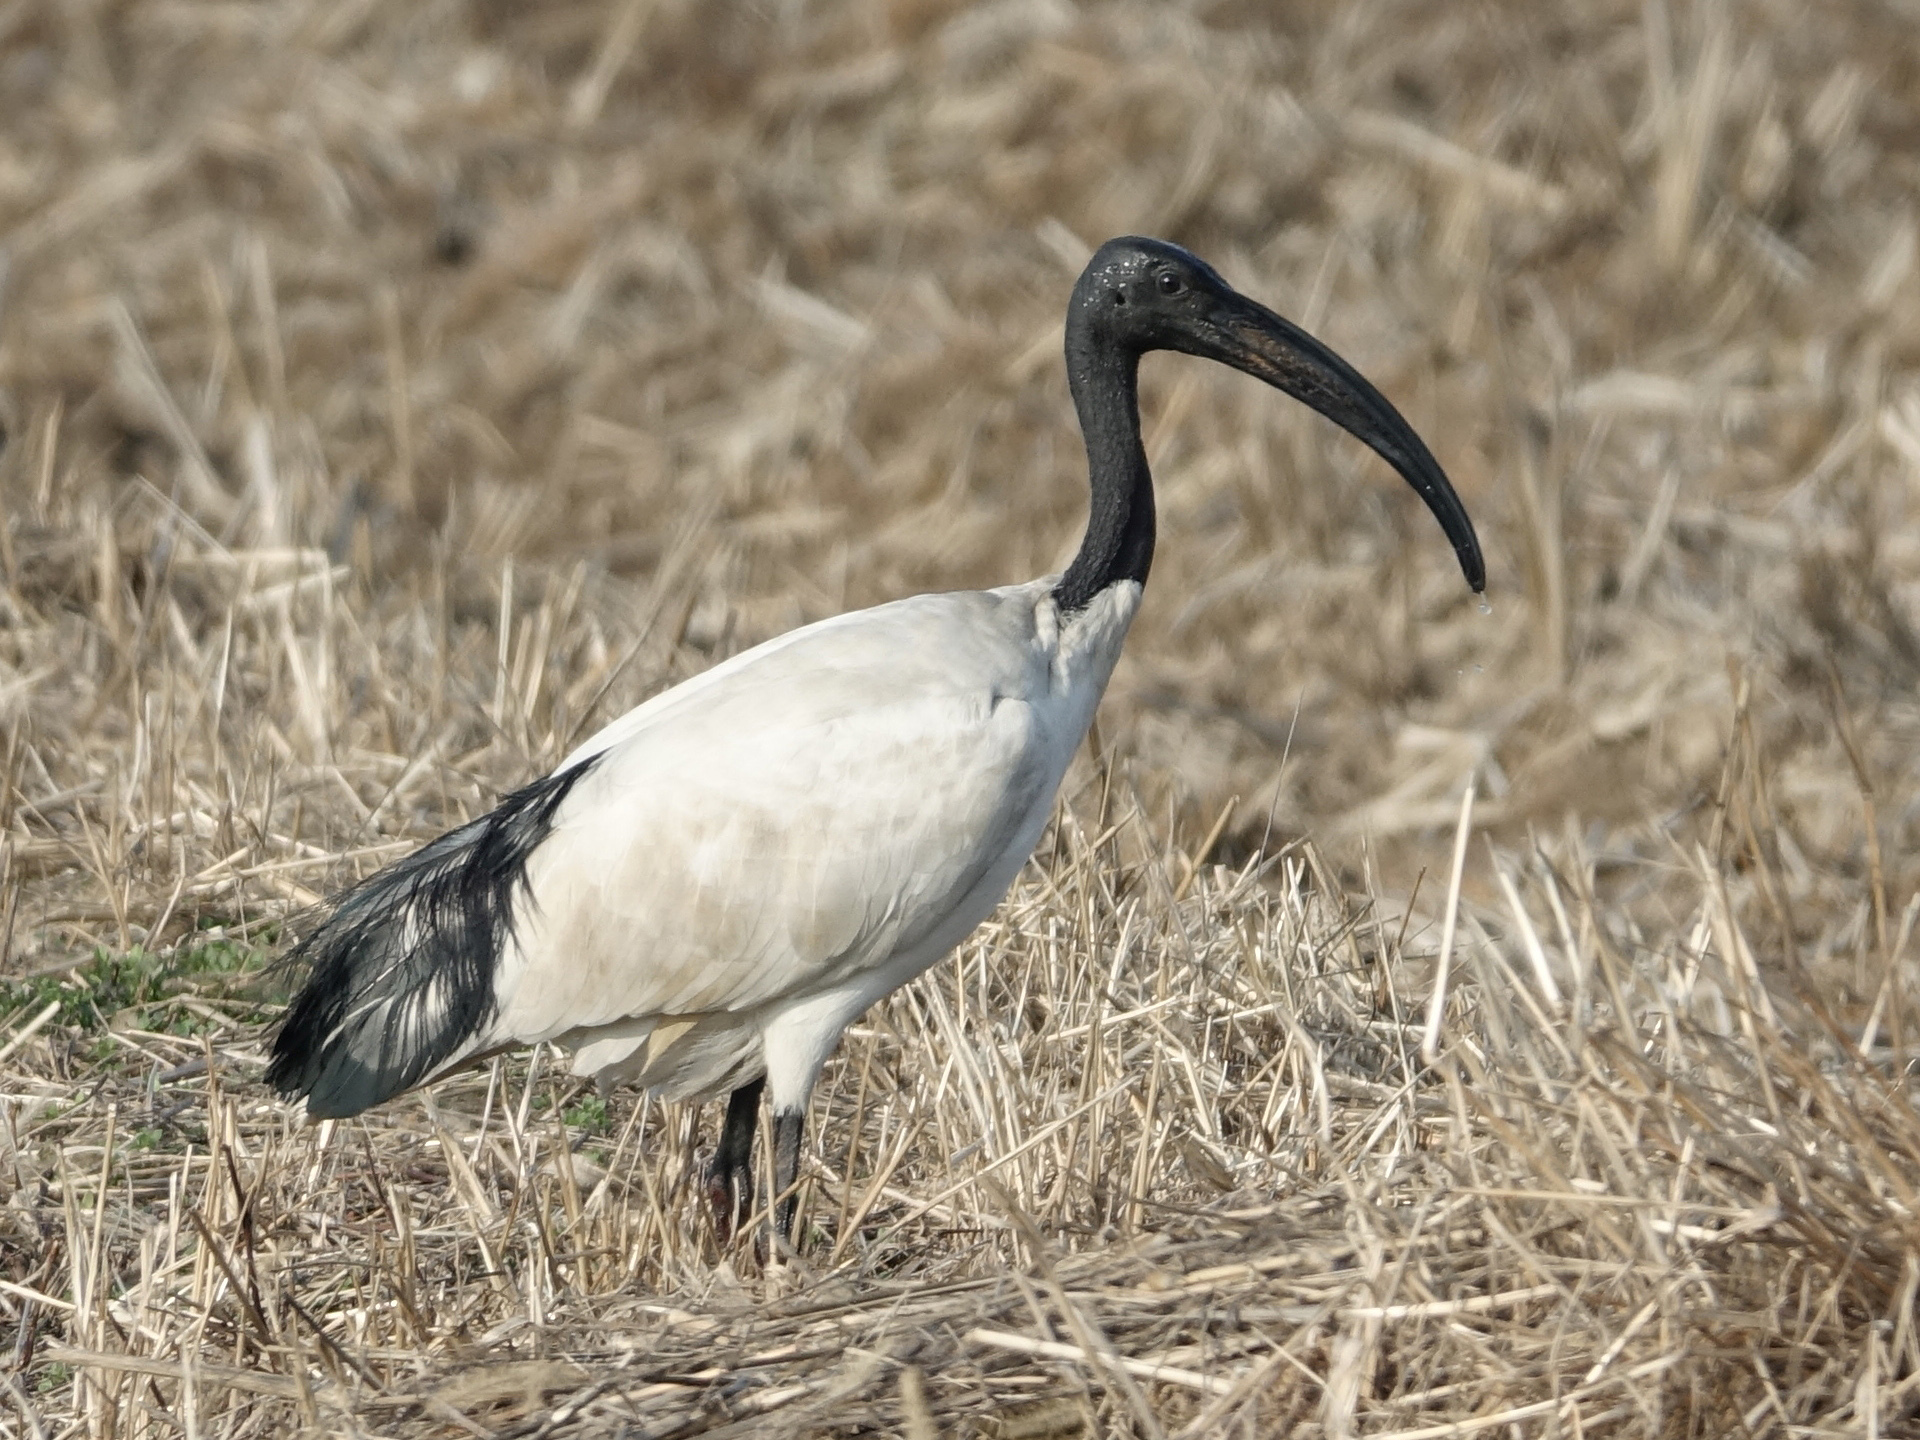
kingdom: Animalia
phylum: Chordata
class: Aves
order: Pelecaniformes
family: Threskiornithidae
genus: Threskiornis
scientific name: Threskiornis aethiopicus
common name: Sacred ibis
